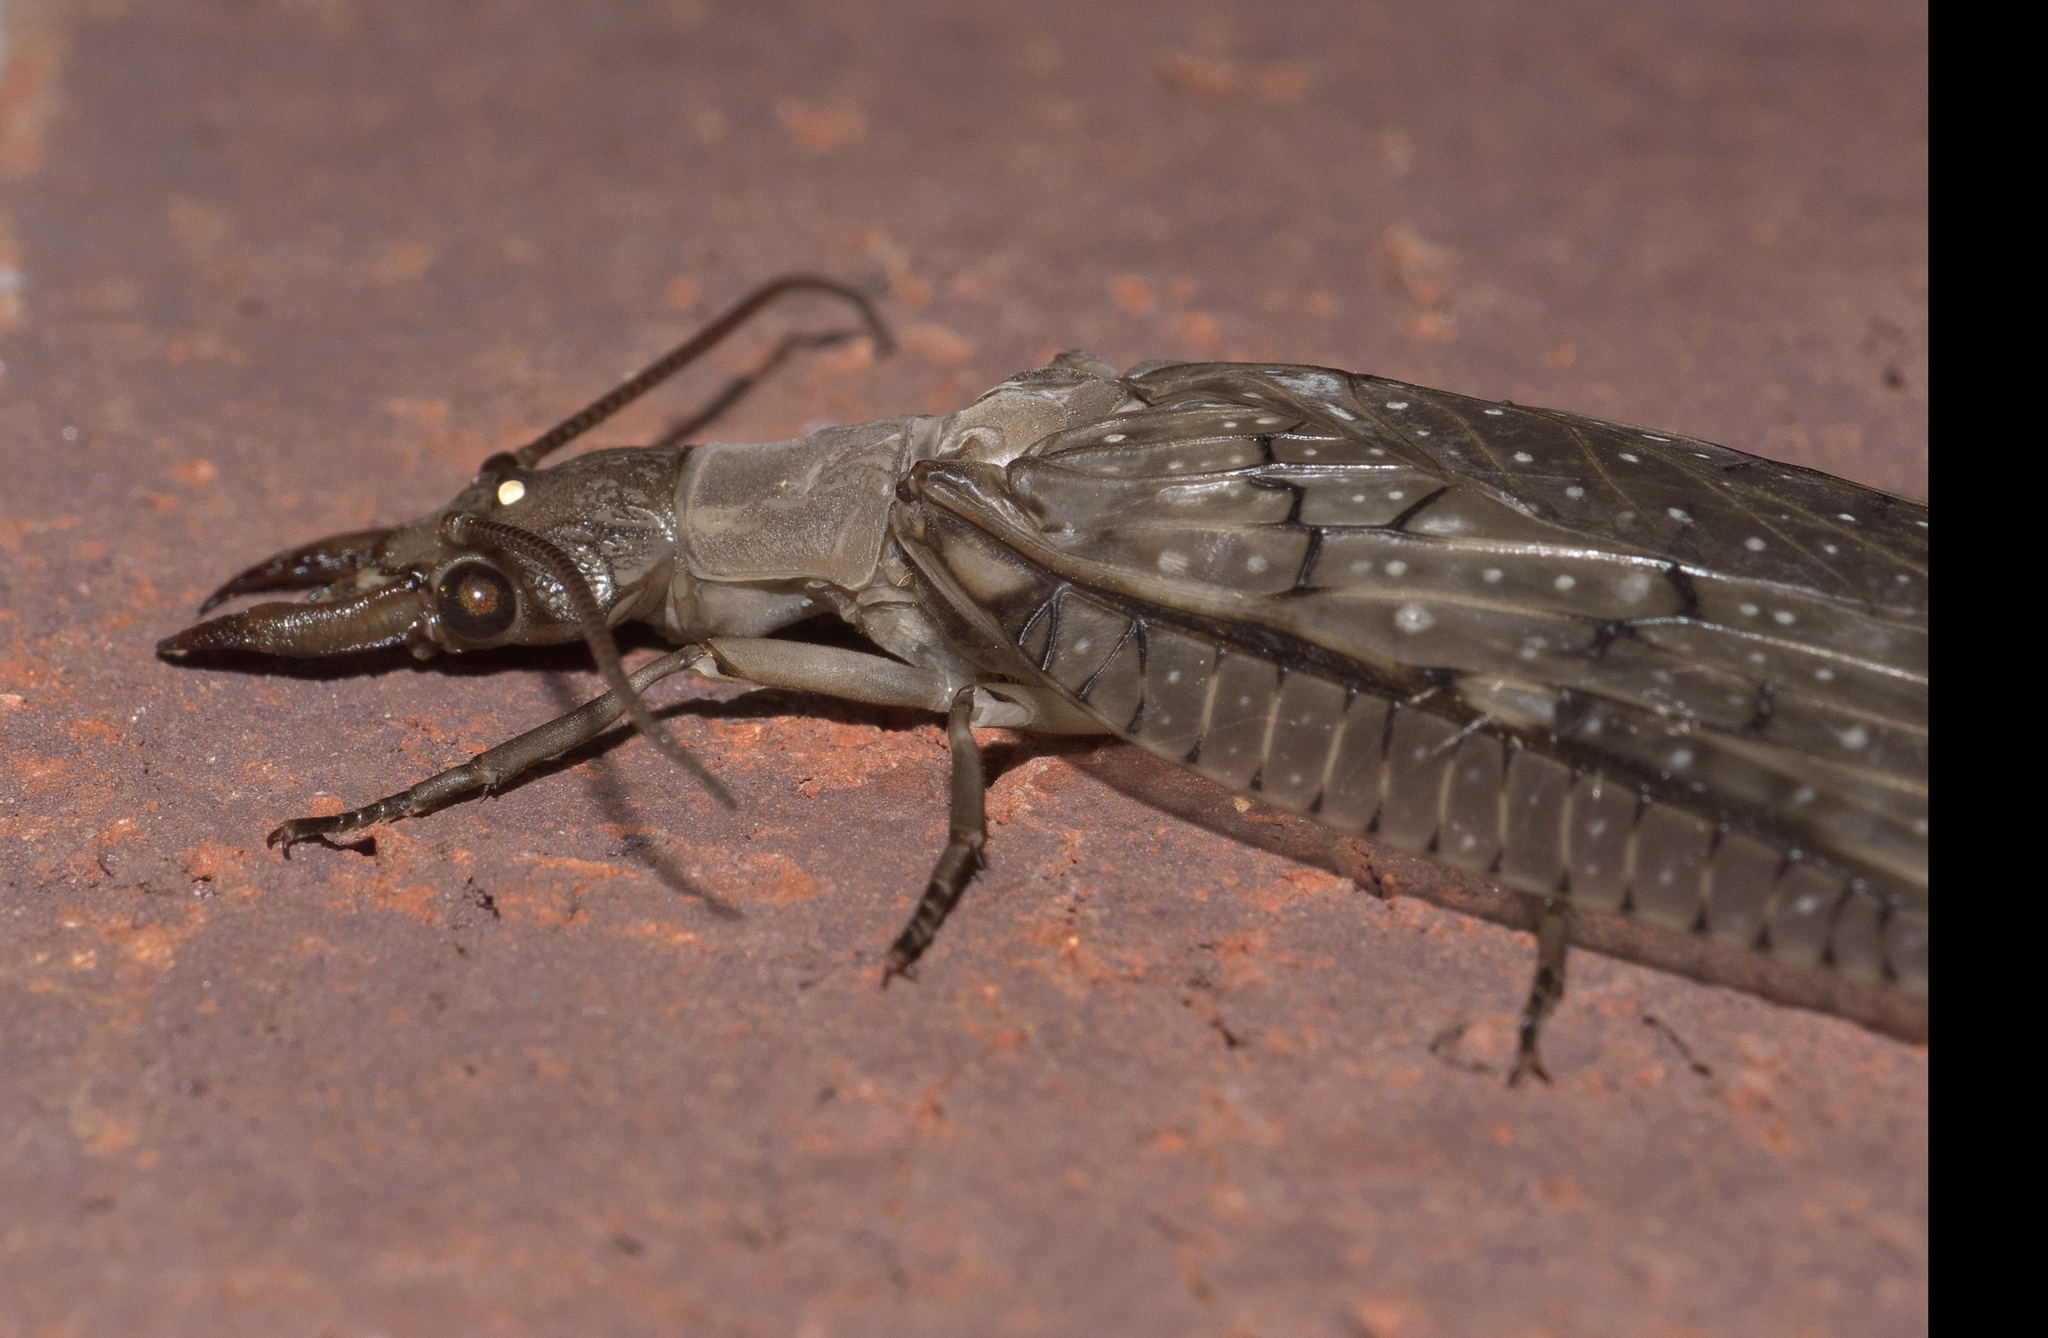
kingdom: Animalia
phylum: Arthropoda
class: Insecta
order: Megaloptera
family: Corydalidae
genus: Corydalus
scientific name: Corydalus cornutus
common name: Dobsonfly
